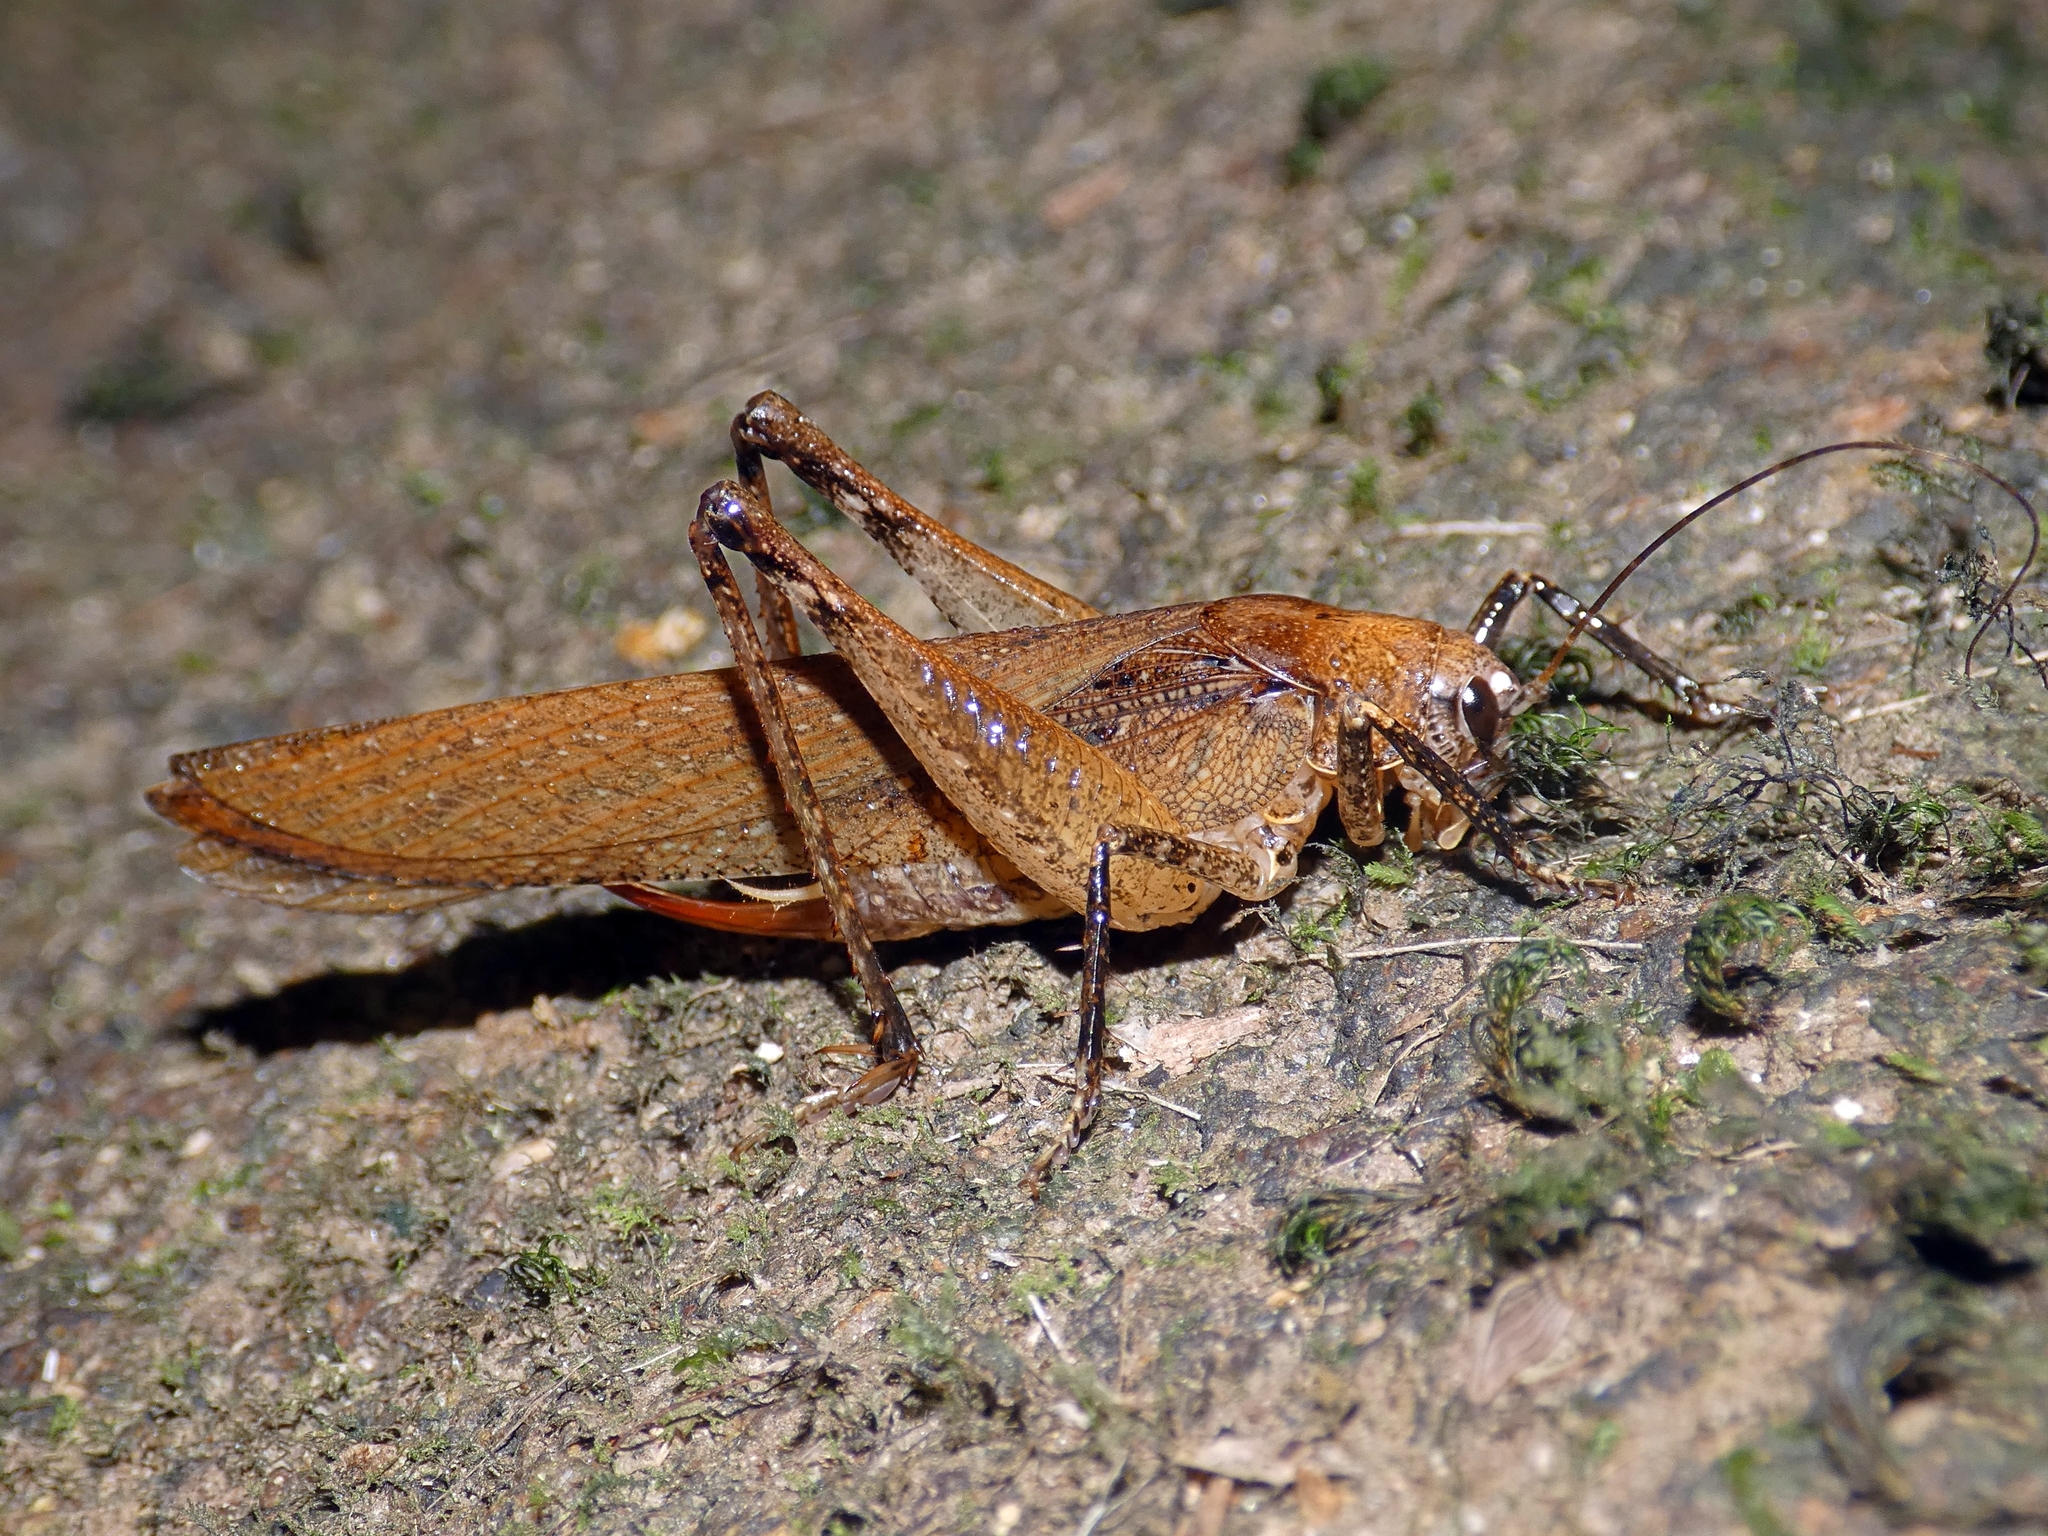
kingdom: Animalia
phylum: Arthropoda
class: Insecta
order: Orthoptera
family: Anostostomatidae
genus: Transaevum
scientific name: Transaevum laudatum
